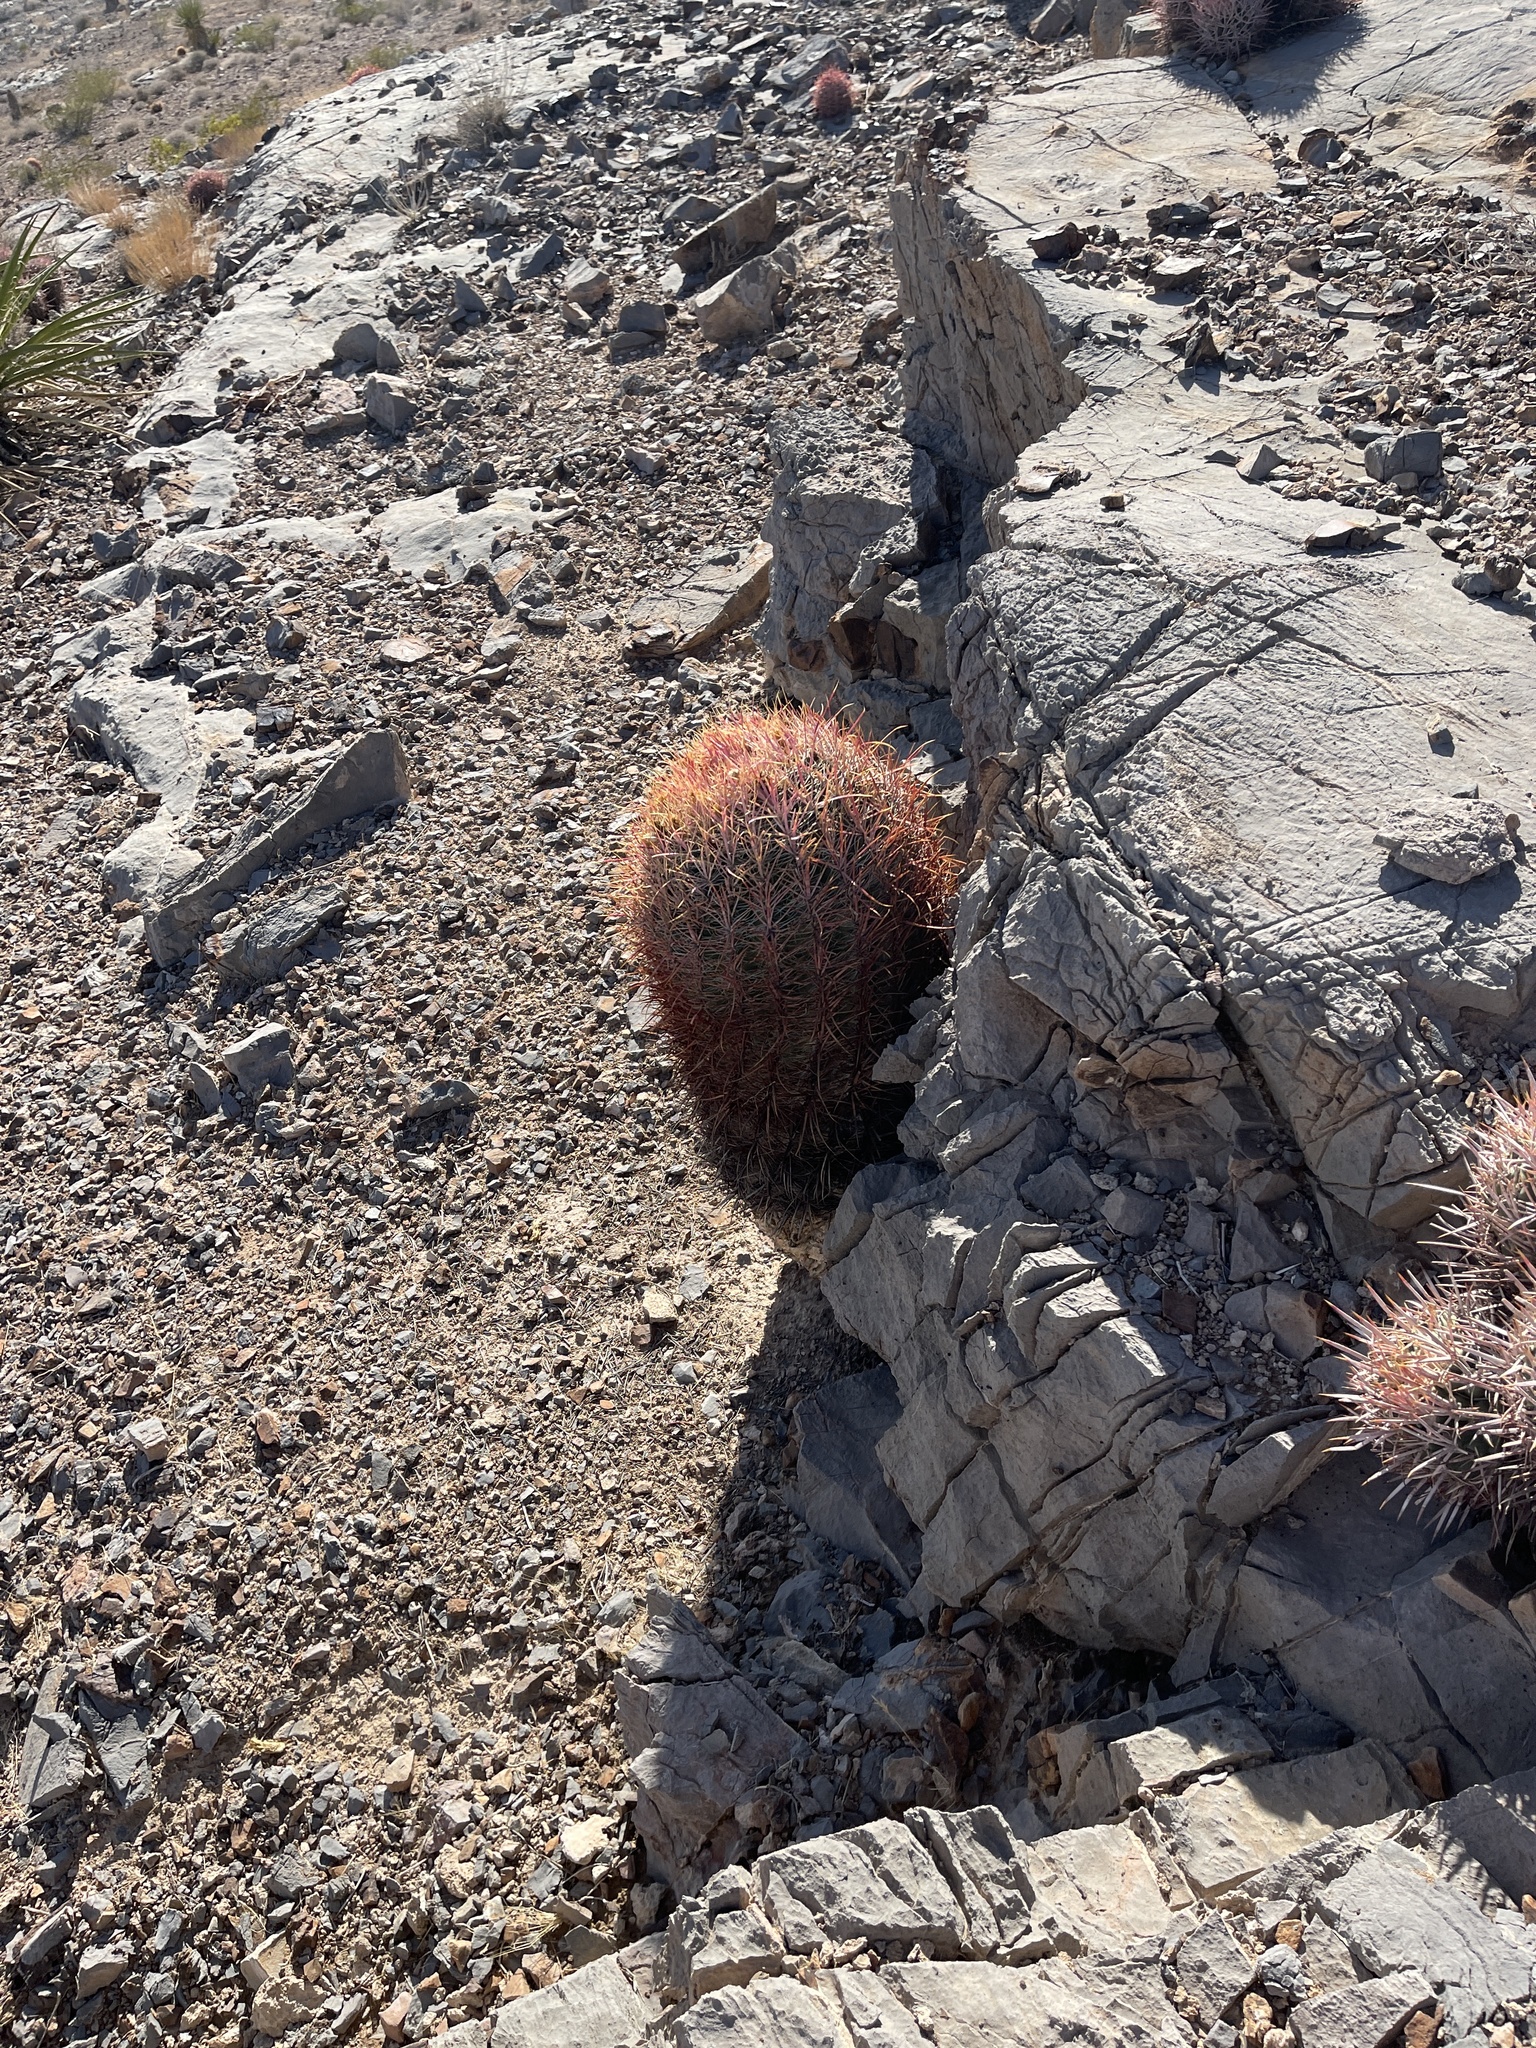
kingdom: Plantae
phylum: Tracheophyta
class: Magnoliopsida
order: Caryophyllales
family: Cactaceae
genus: Ferocactus
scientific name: Ferocactus cylindraceus
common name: California barrel cactus
